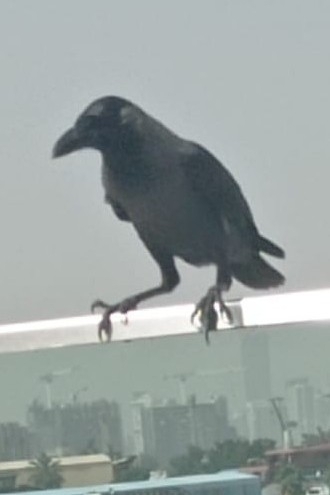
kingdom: Animalia
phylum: Chordata
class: Aves
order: Passeriformes
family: Corvidae
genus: Corvus
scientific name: Corvus splendens
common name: House crow
